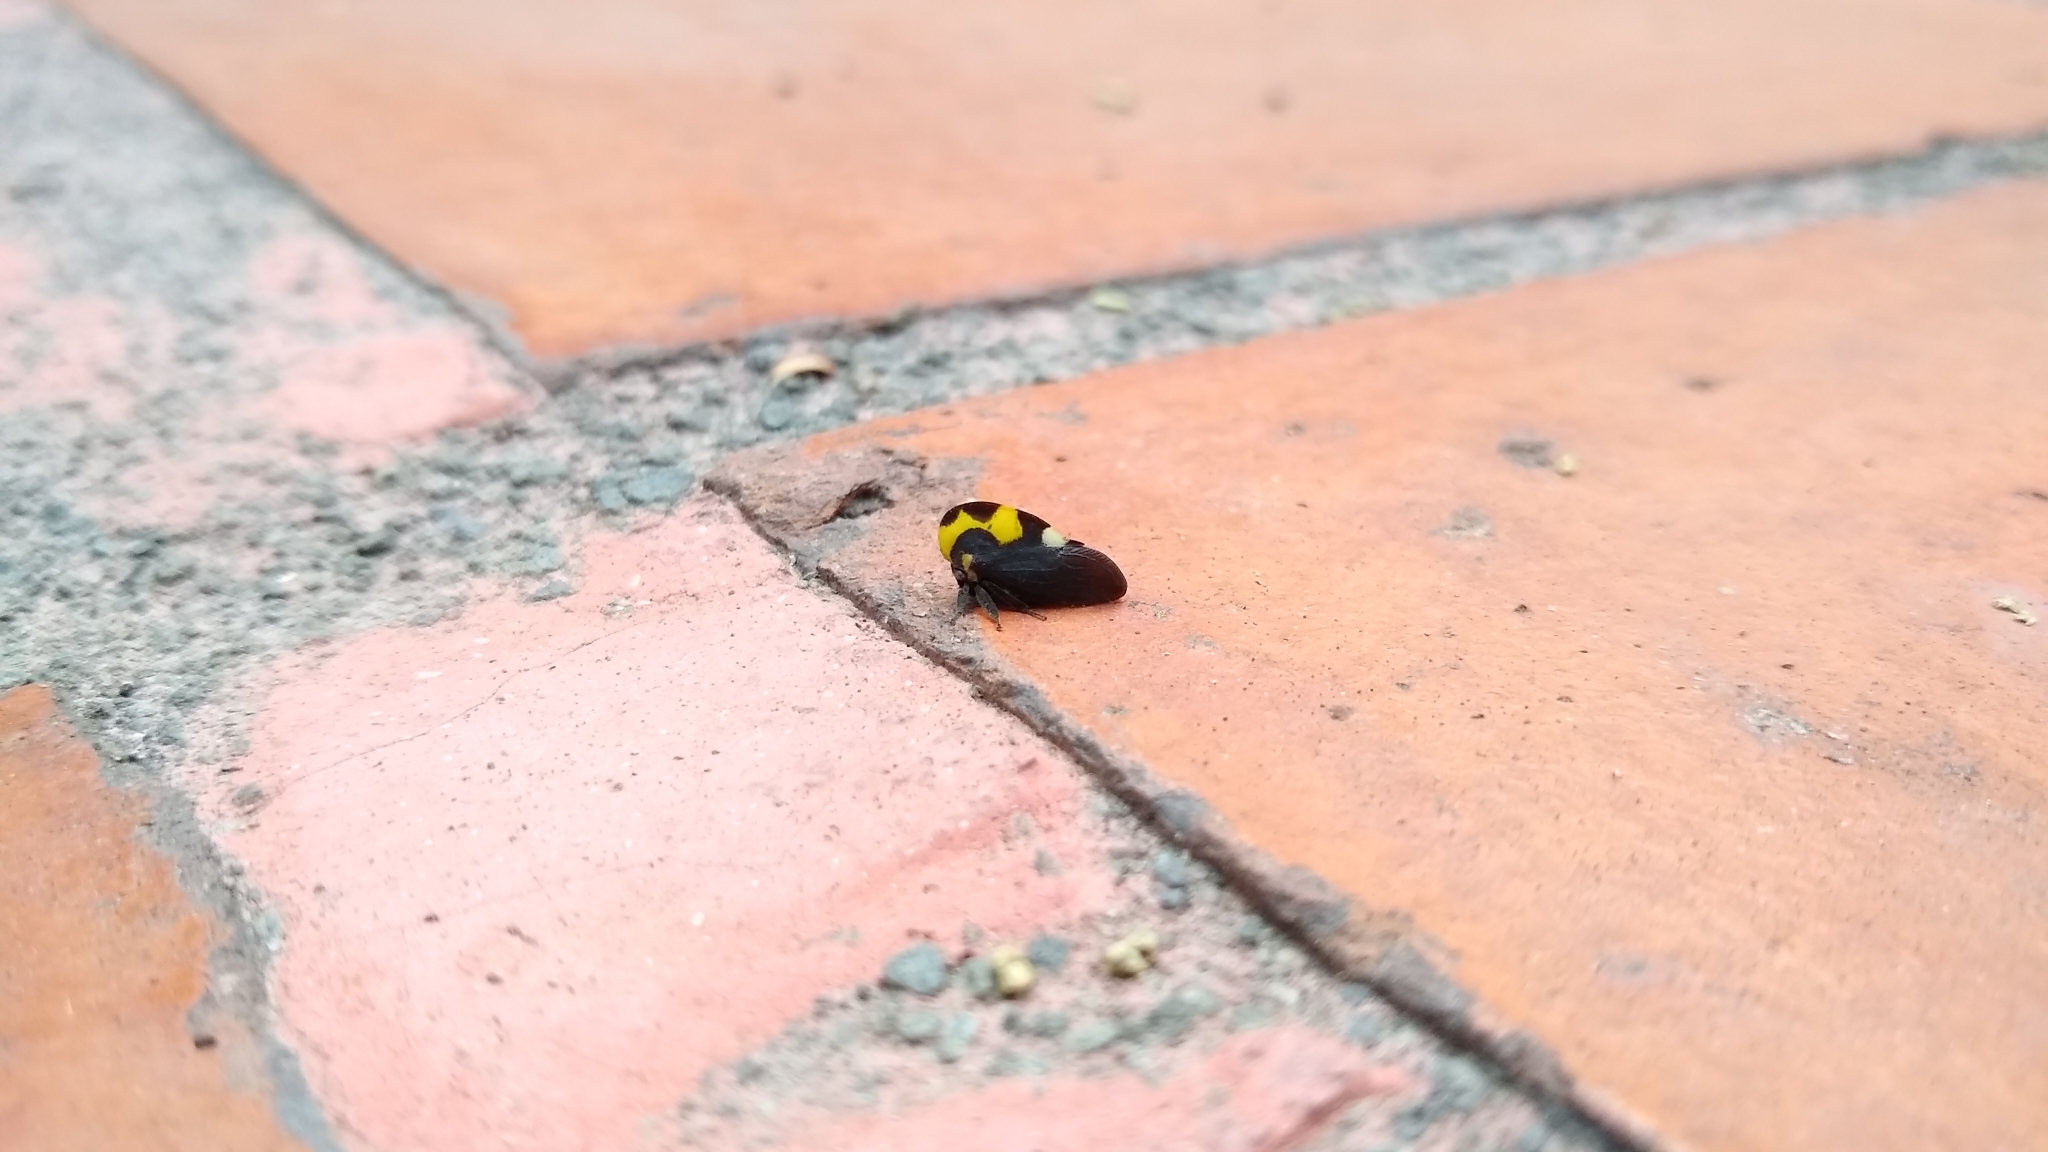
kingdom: Animalia
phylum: Arthropoda
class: Insecta
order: Hemiptera
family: Membracidae
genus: Membracis
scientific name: Membracis mexicana
